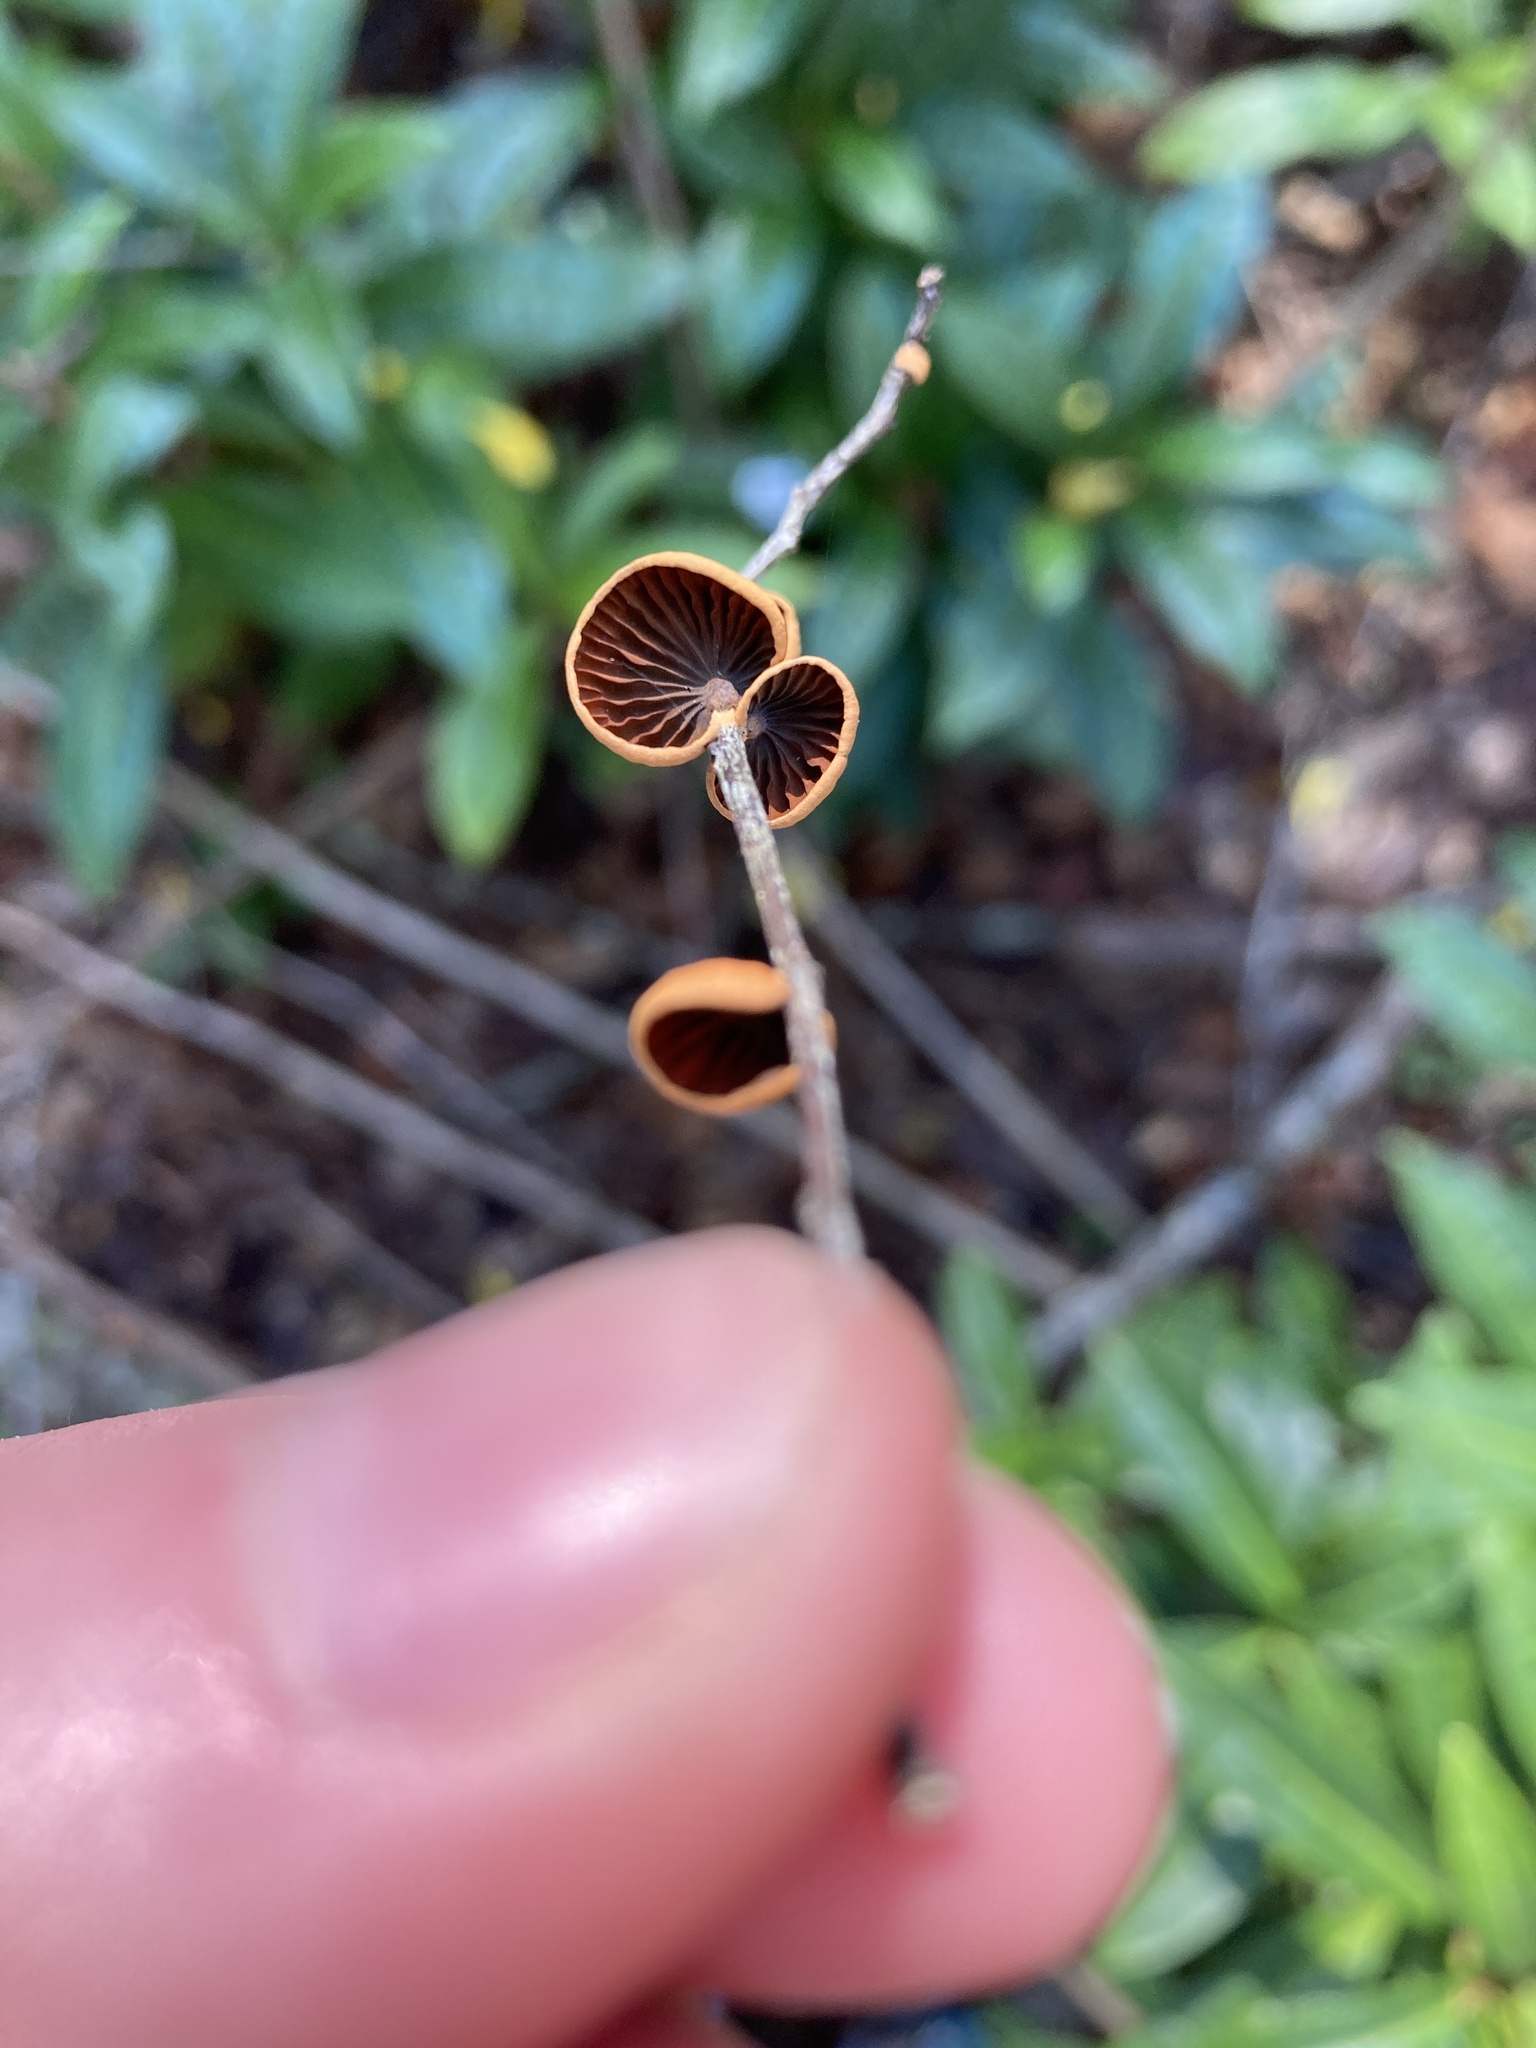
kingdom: Fungi
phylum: Basidiomycota
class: Agaricomycetes
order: Agaricales
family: Omphalotaceae
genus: Anthracophyllum
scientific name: Anthracophyllum lateritium
